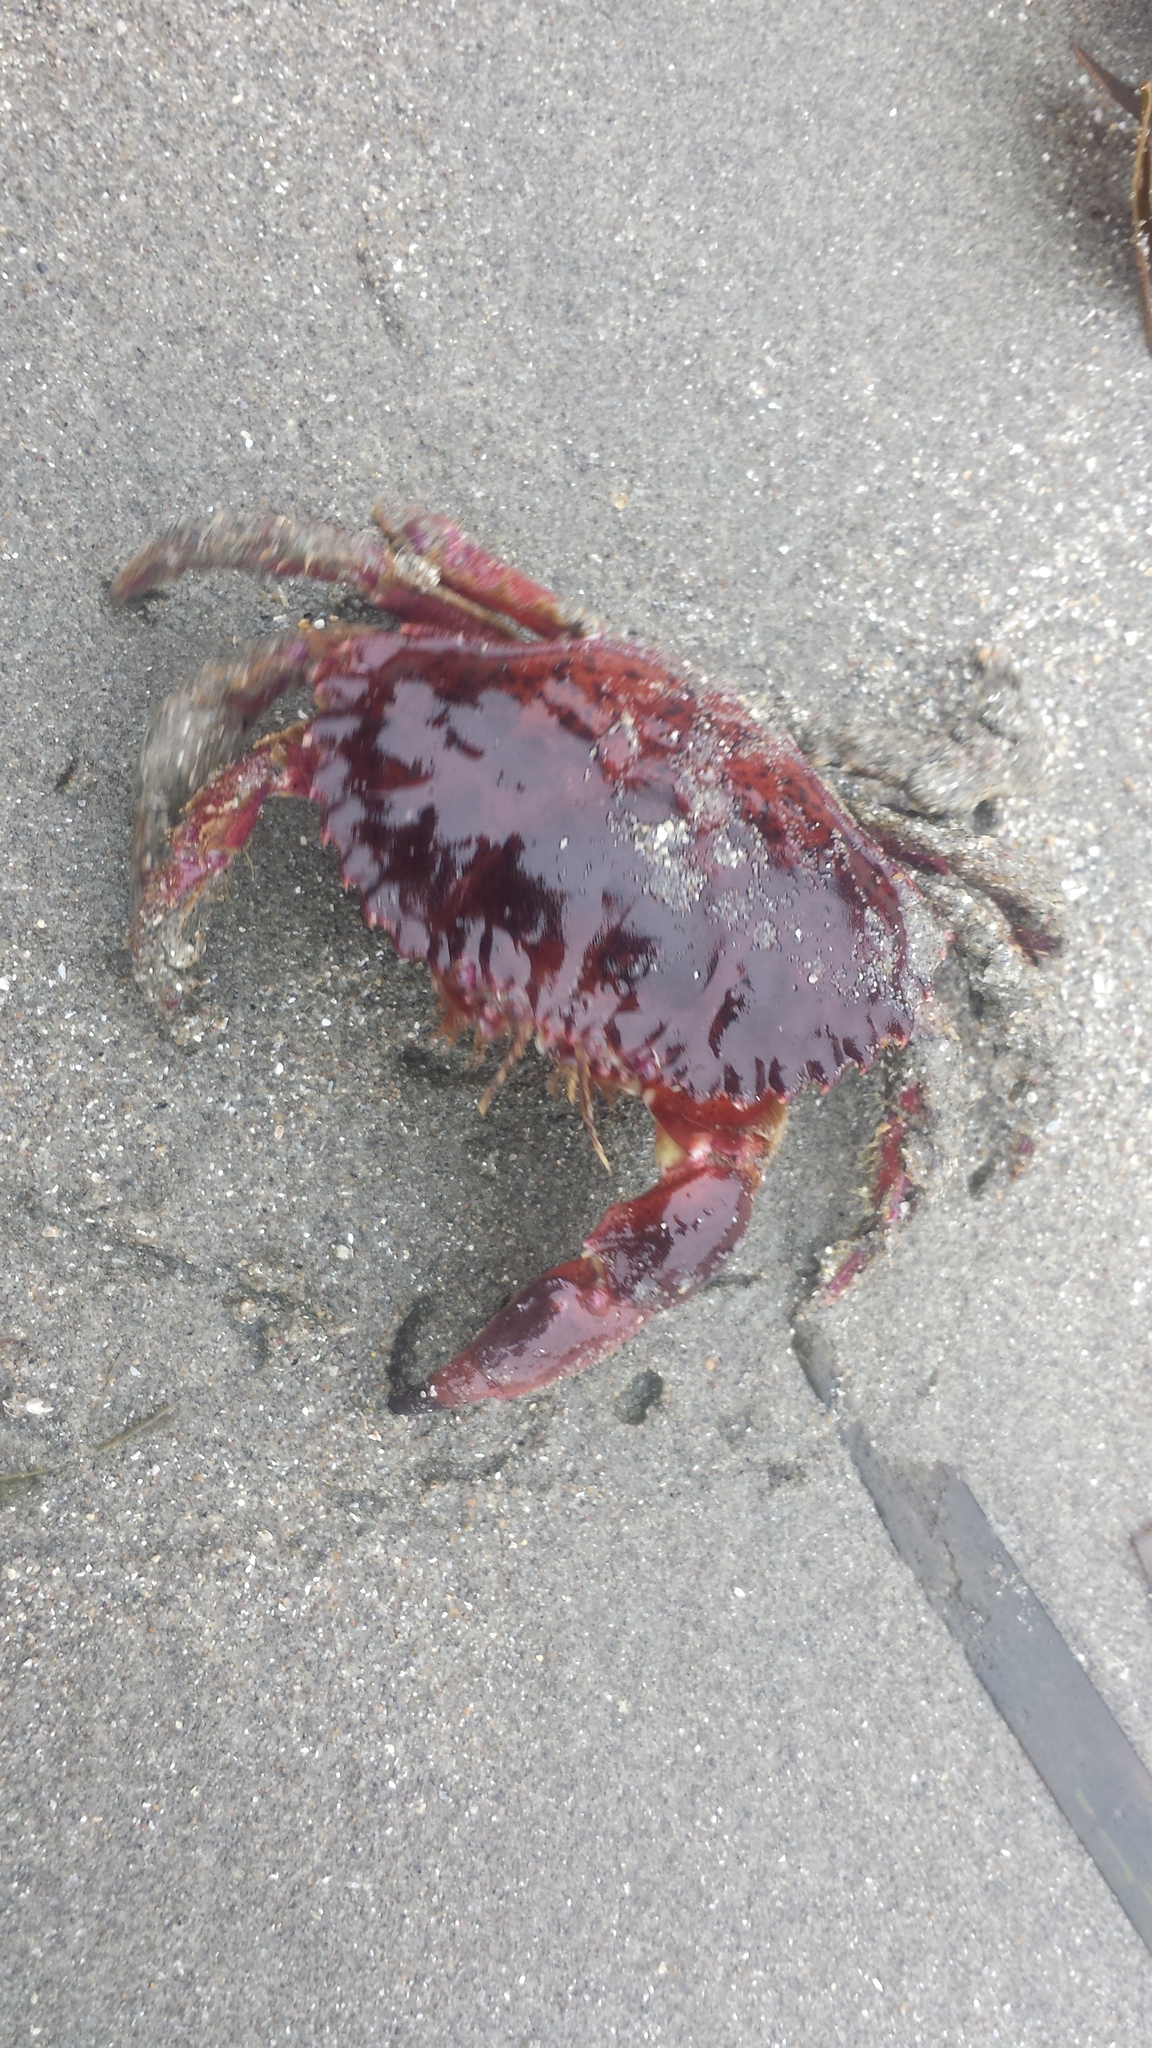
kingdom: Animalia
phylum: Arthropoda
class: Malacostraca
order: Decapoda
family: Cancridae
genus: Romaleon
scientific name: Romaleon antennarium
